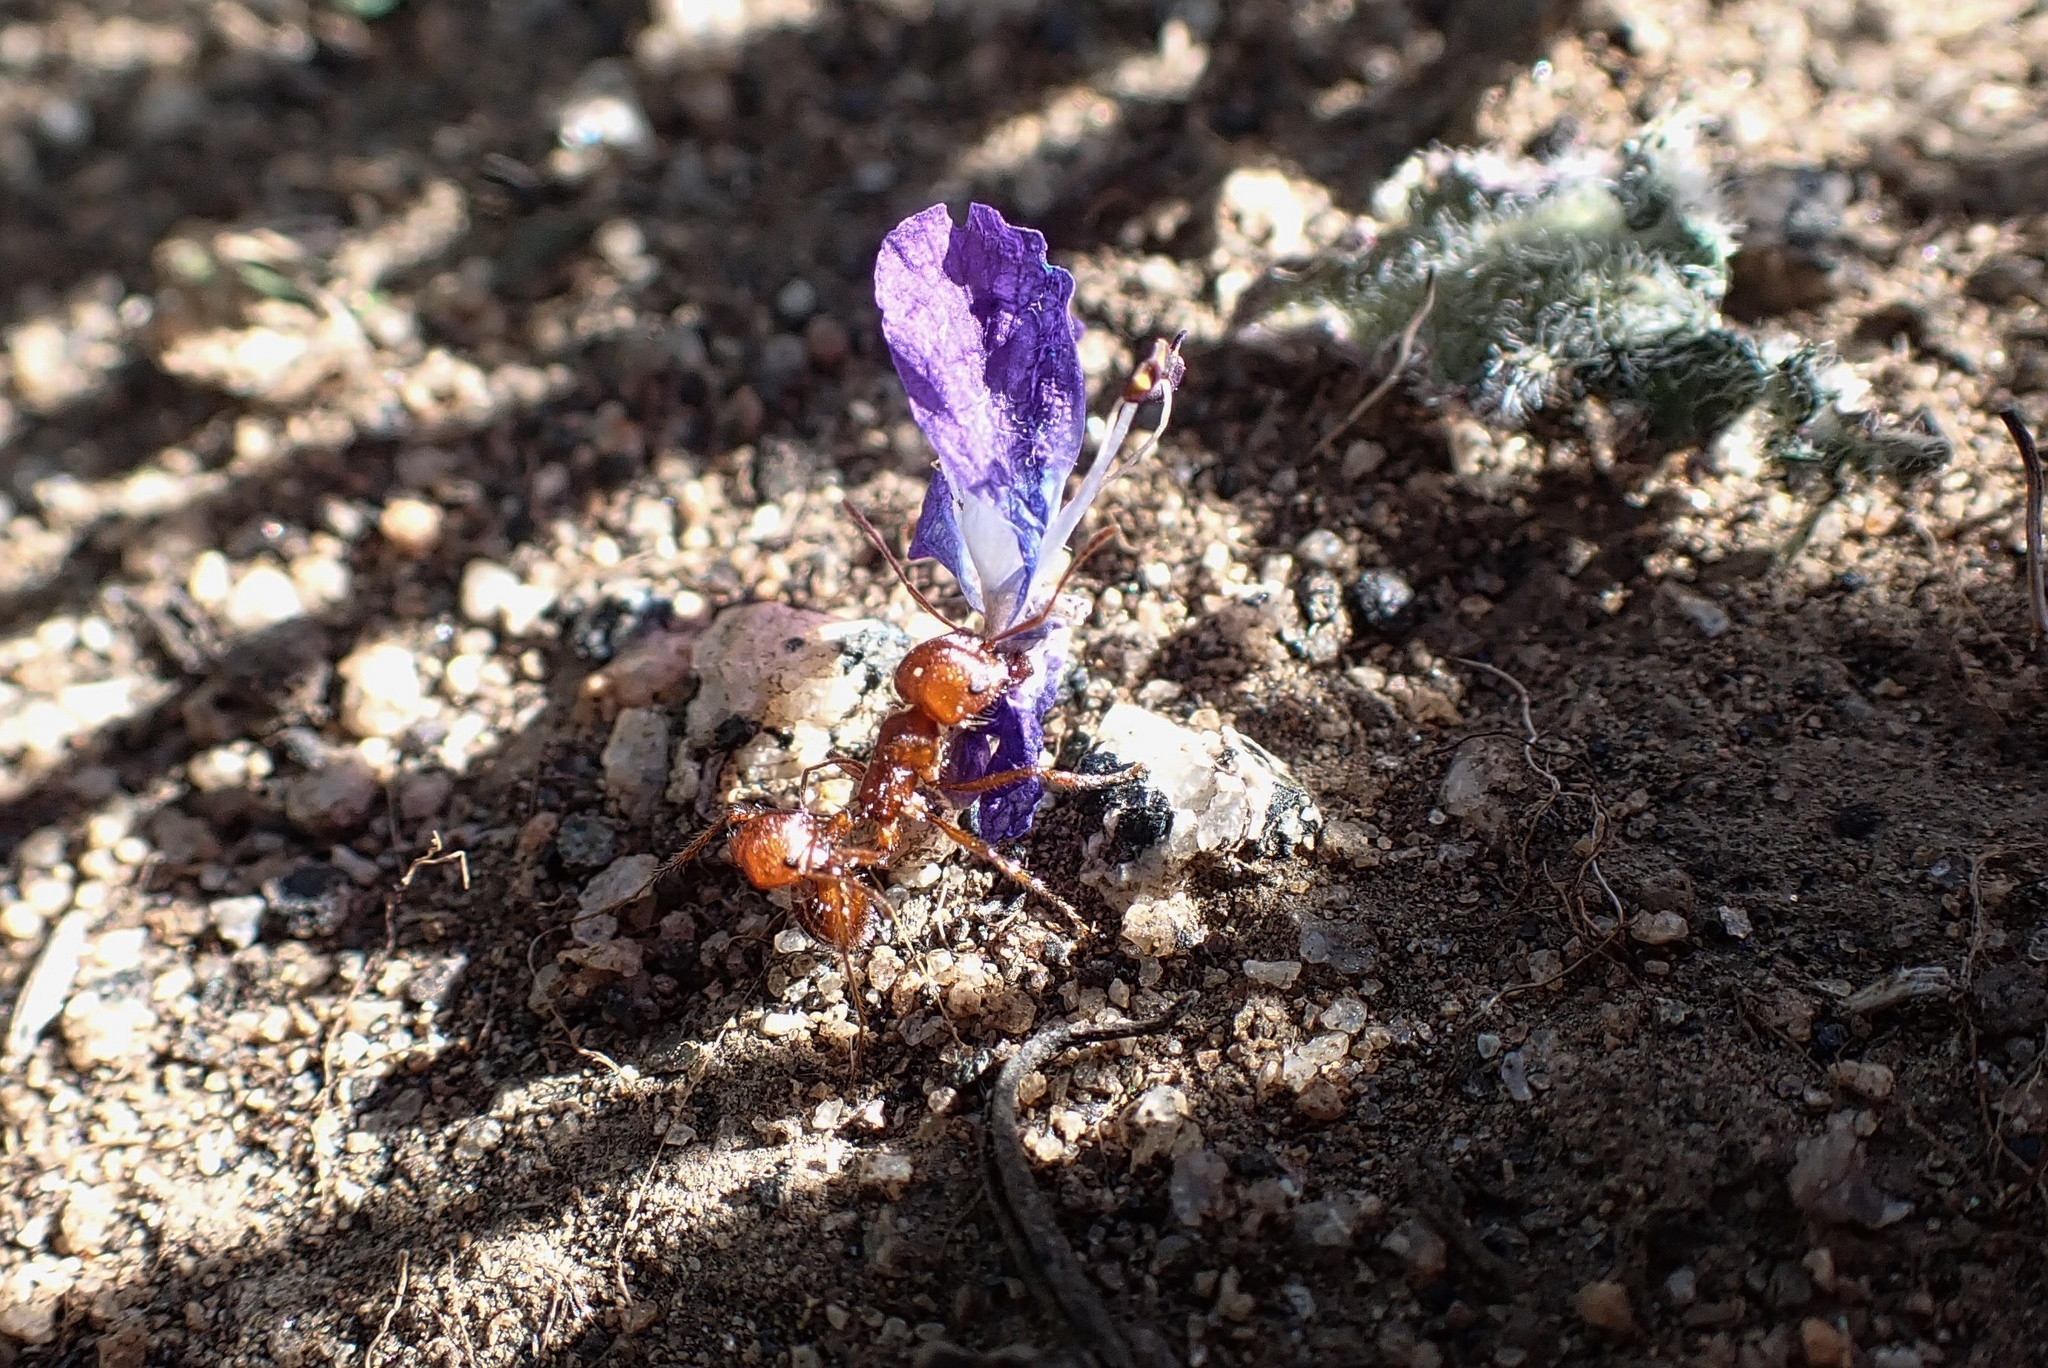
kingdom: Animalia
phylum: Arthropoda
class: Insecta
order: Hymenoptera
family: Formicidae
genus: Pogonomyrmex
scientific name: Pogonomyrmex subnitidus
